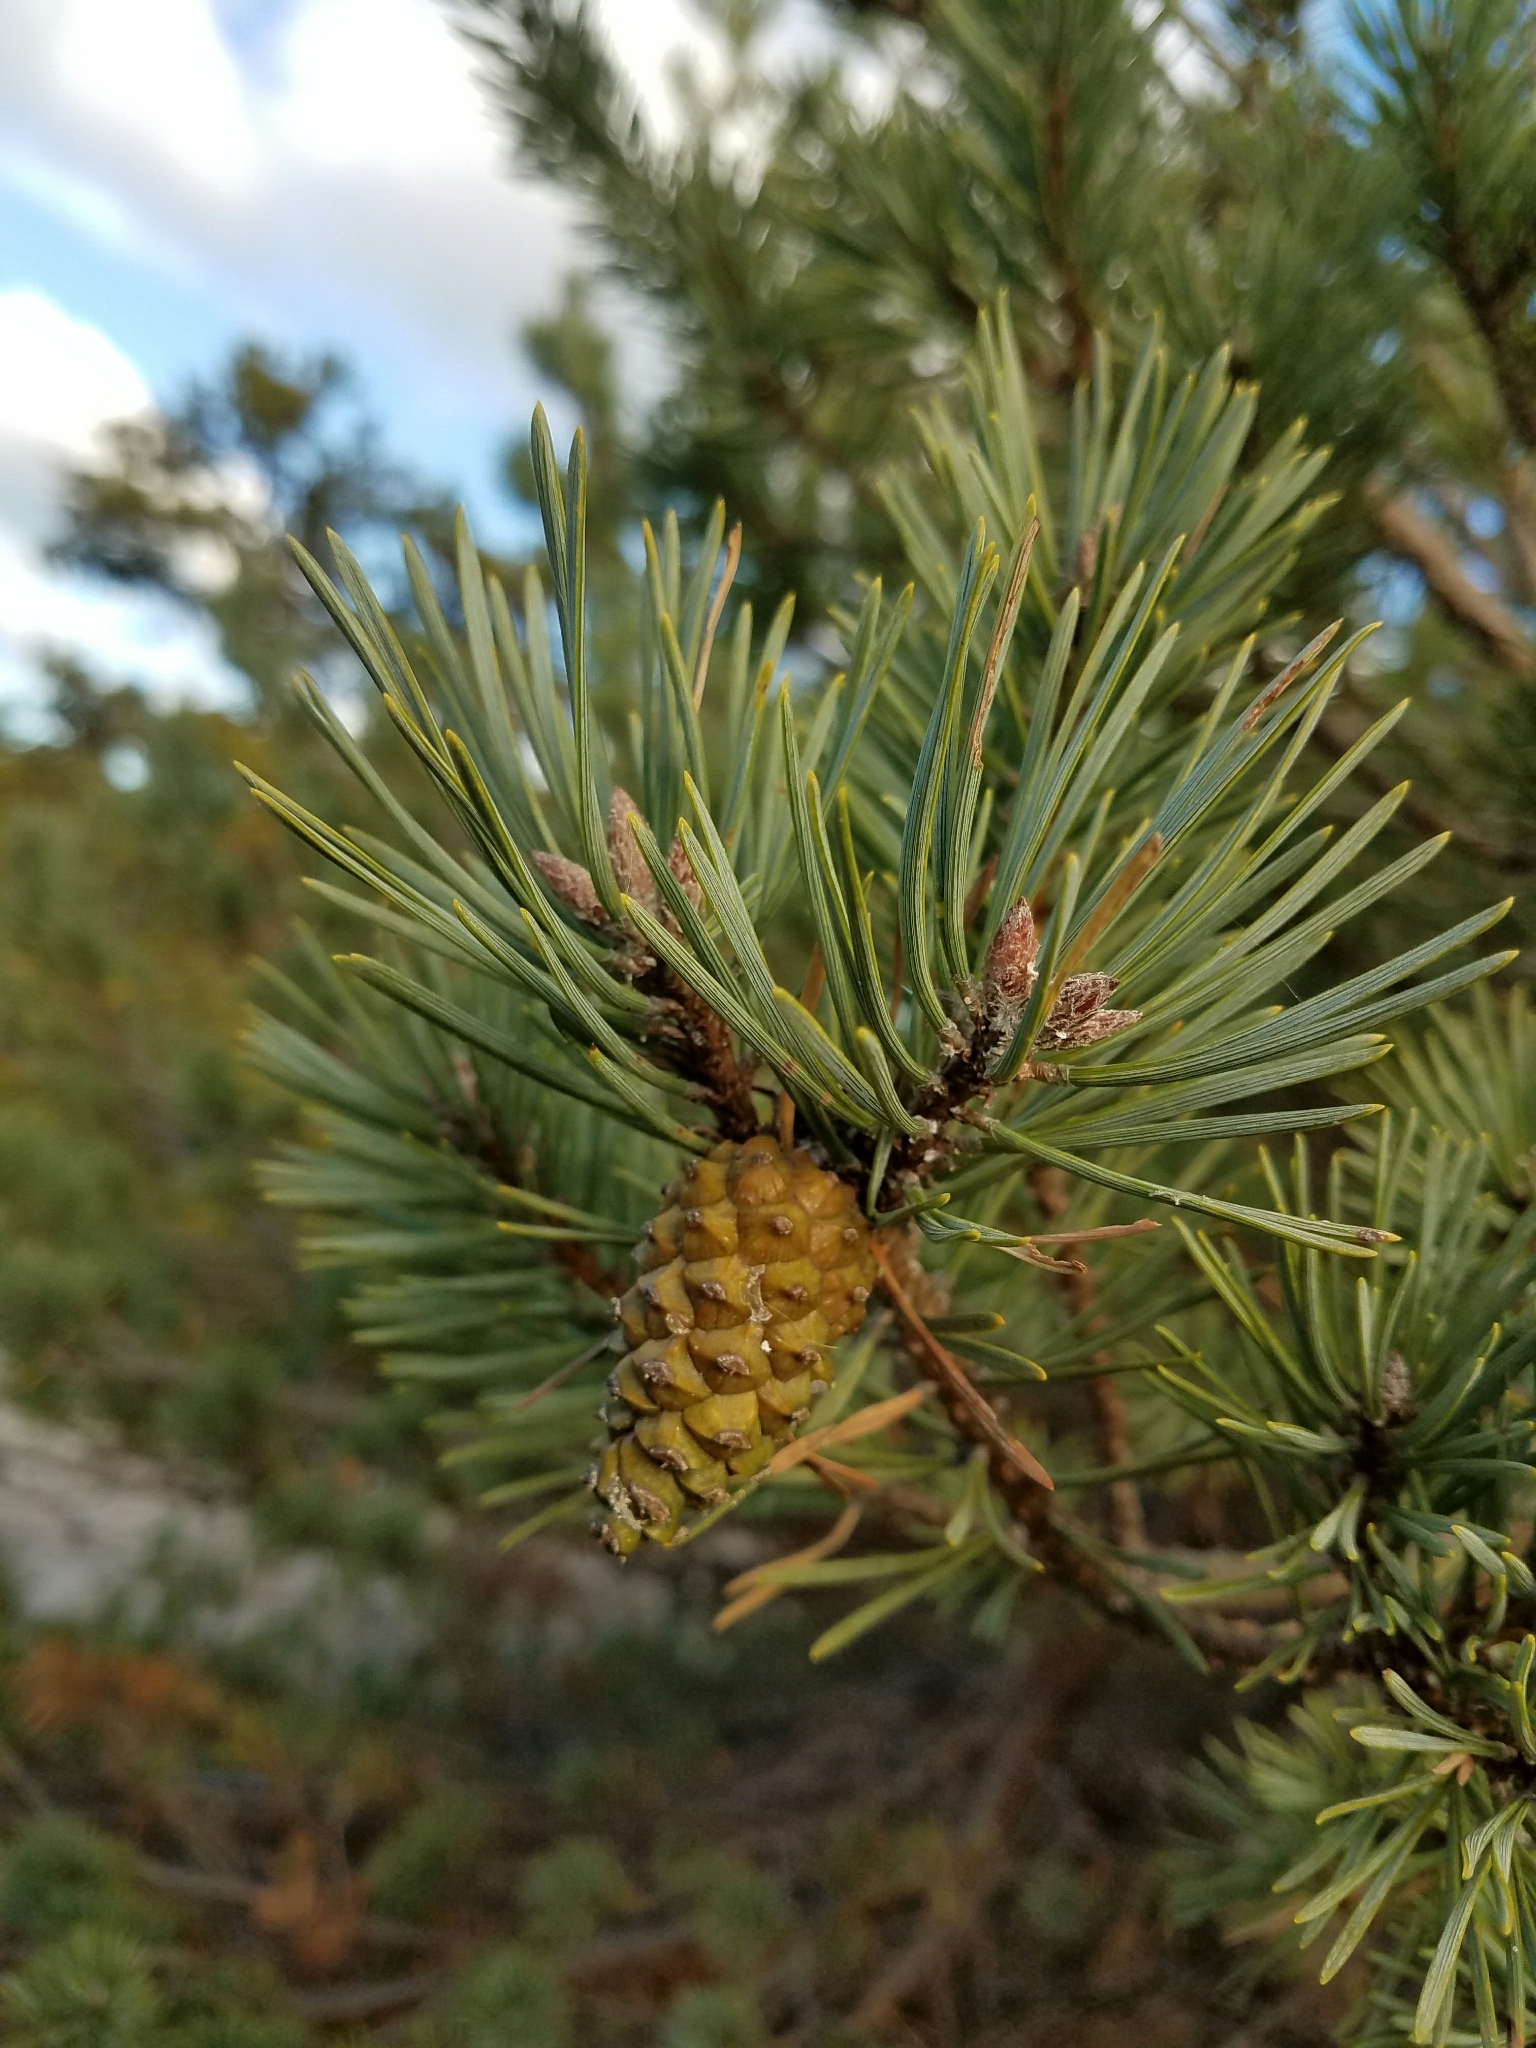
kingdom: Plantae
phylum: Tracheophyta
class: Pinopsida
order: Pinales
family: Pinaceae
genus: Pinus
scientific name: Pinus sylvestris
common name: Scots pine
